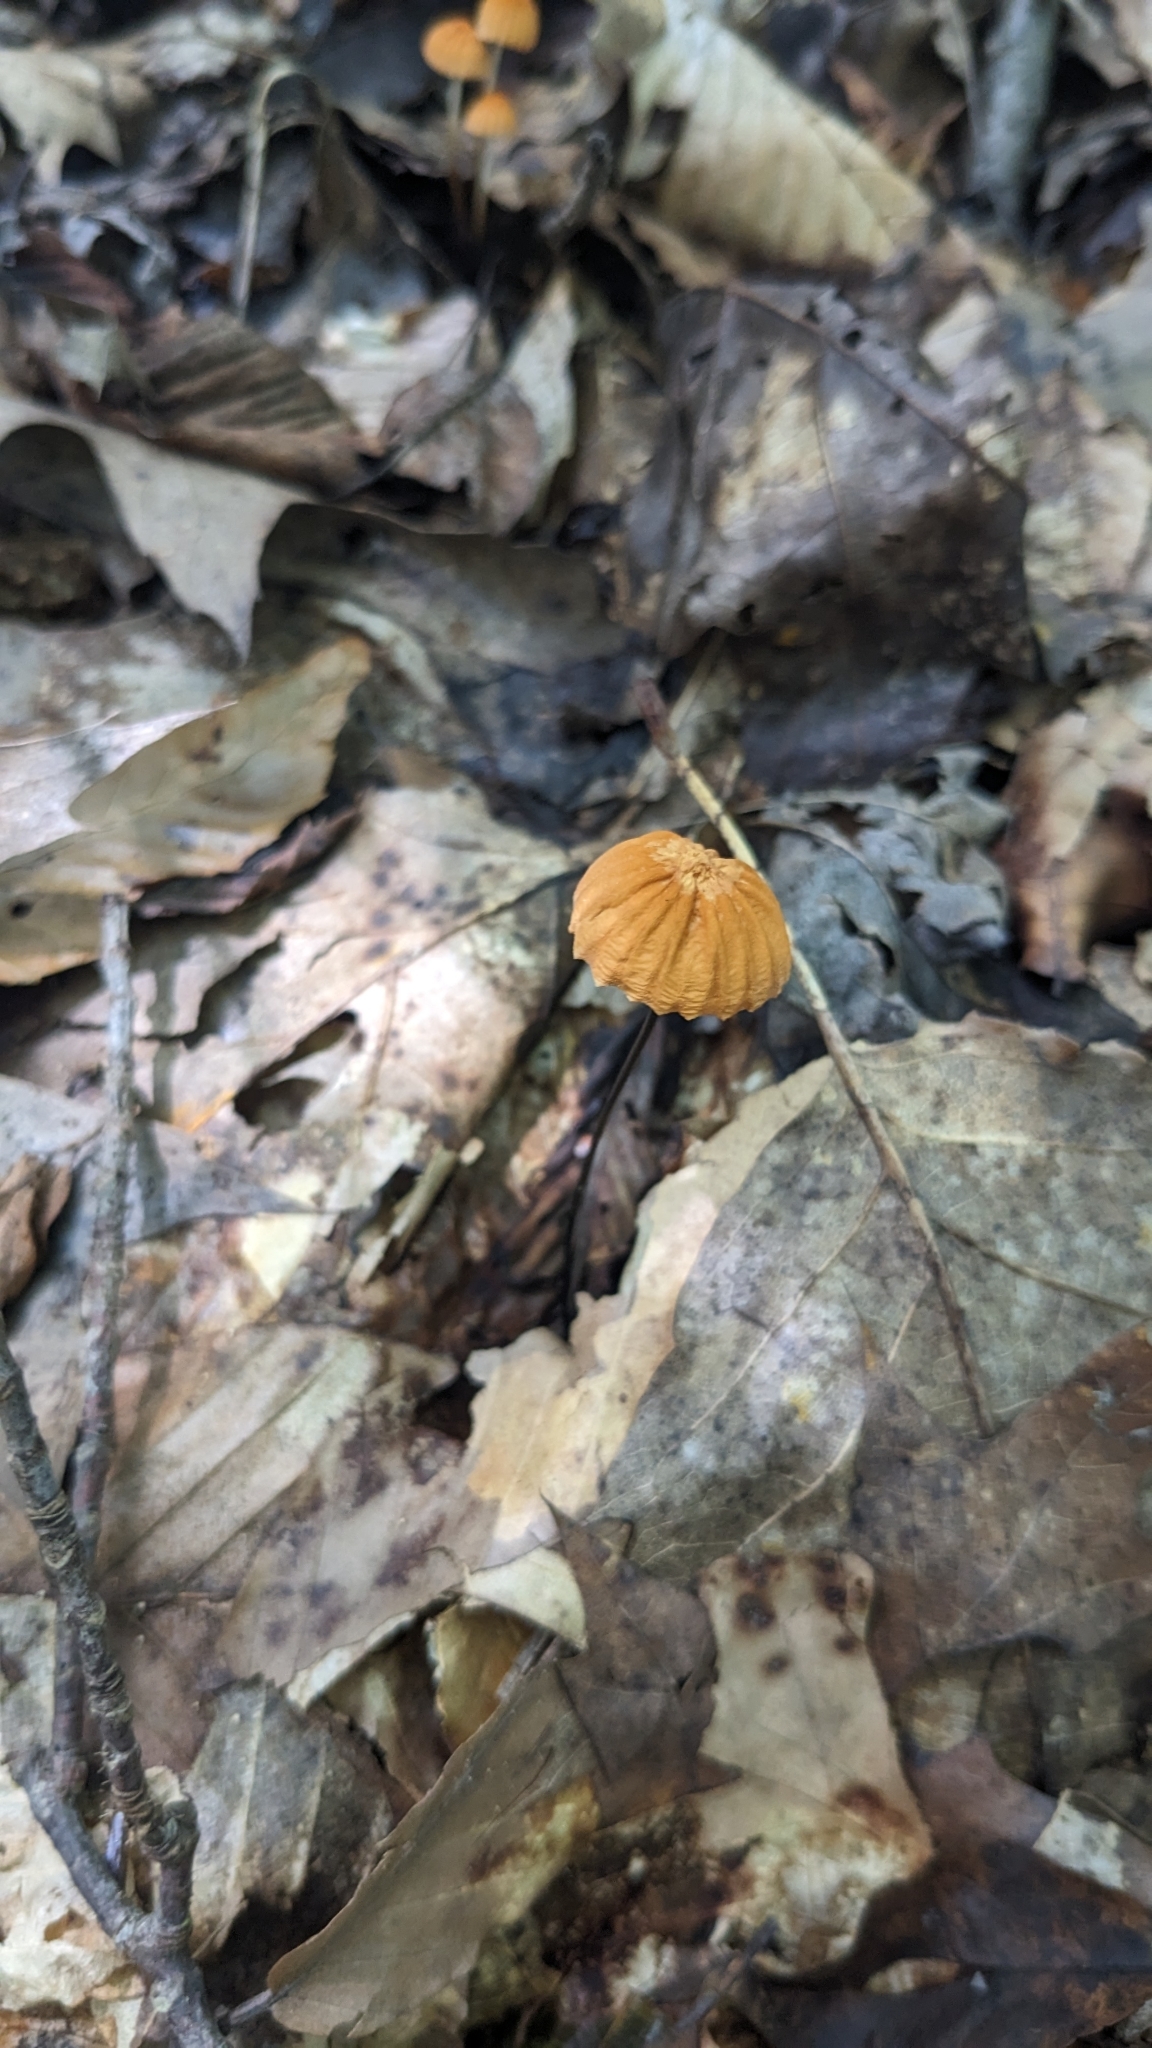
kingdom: Fungi
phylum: Basidiomycota
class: Agaricomycetes
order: Agaricales
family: Marasmiaceae
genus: Marasmius
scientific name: Marasmius siccus
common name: Orange pinwheel
